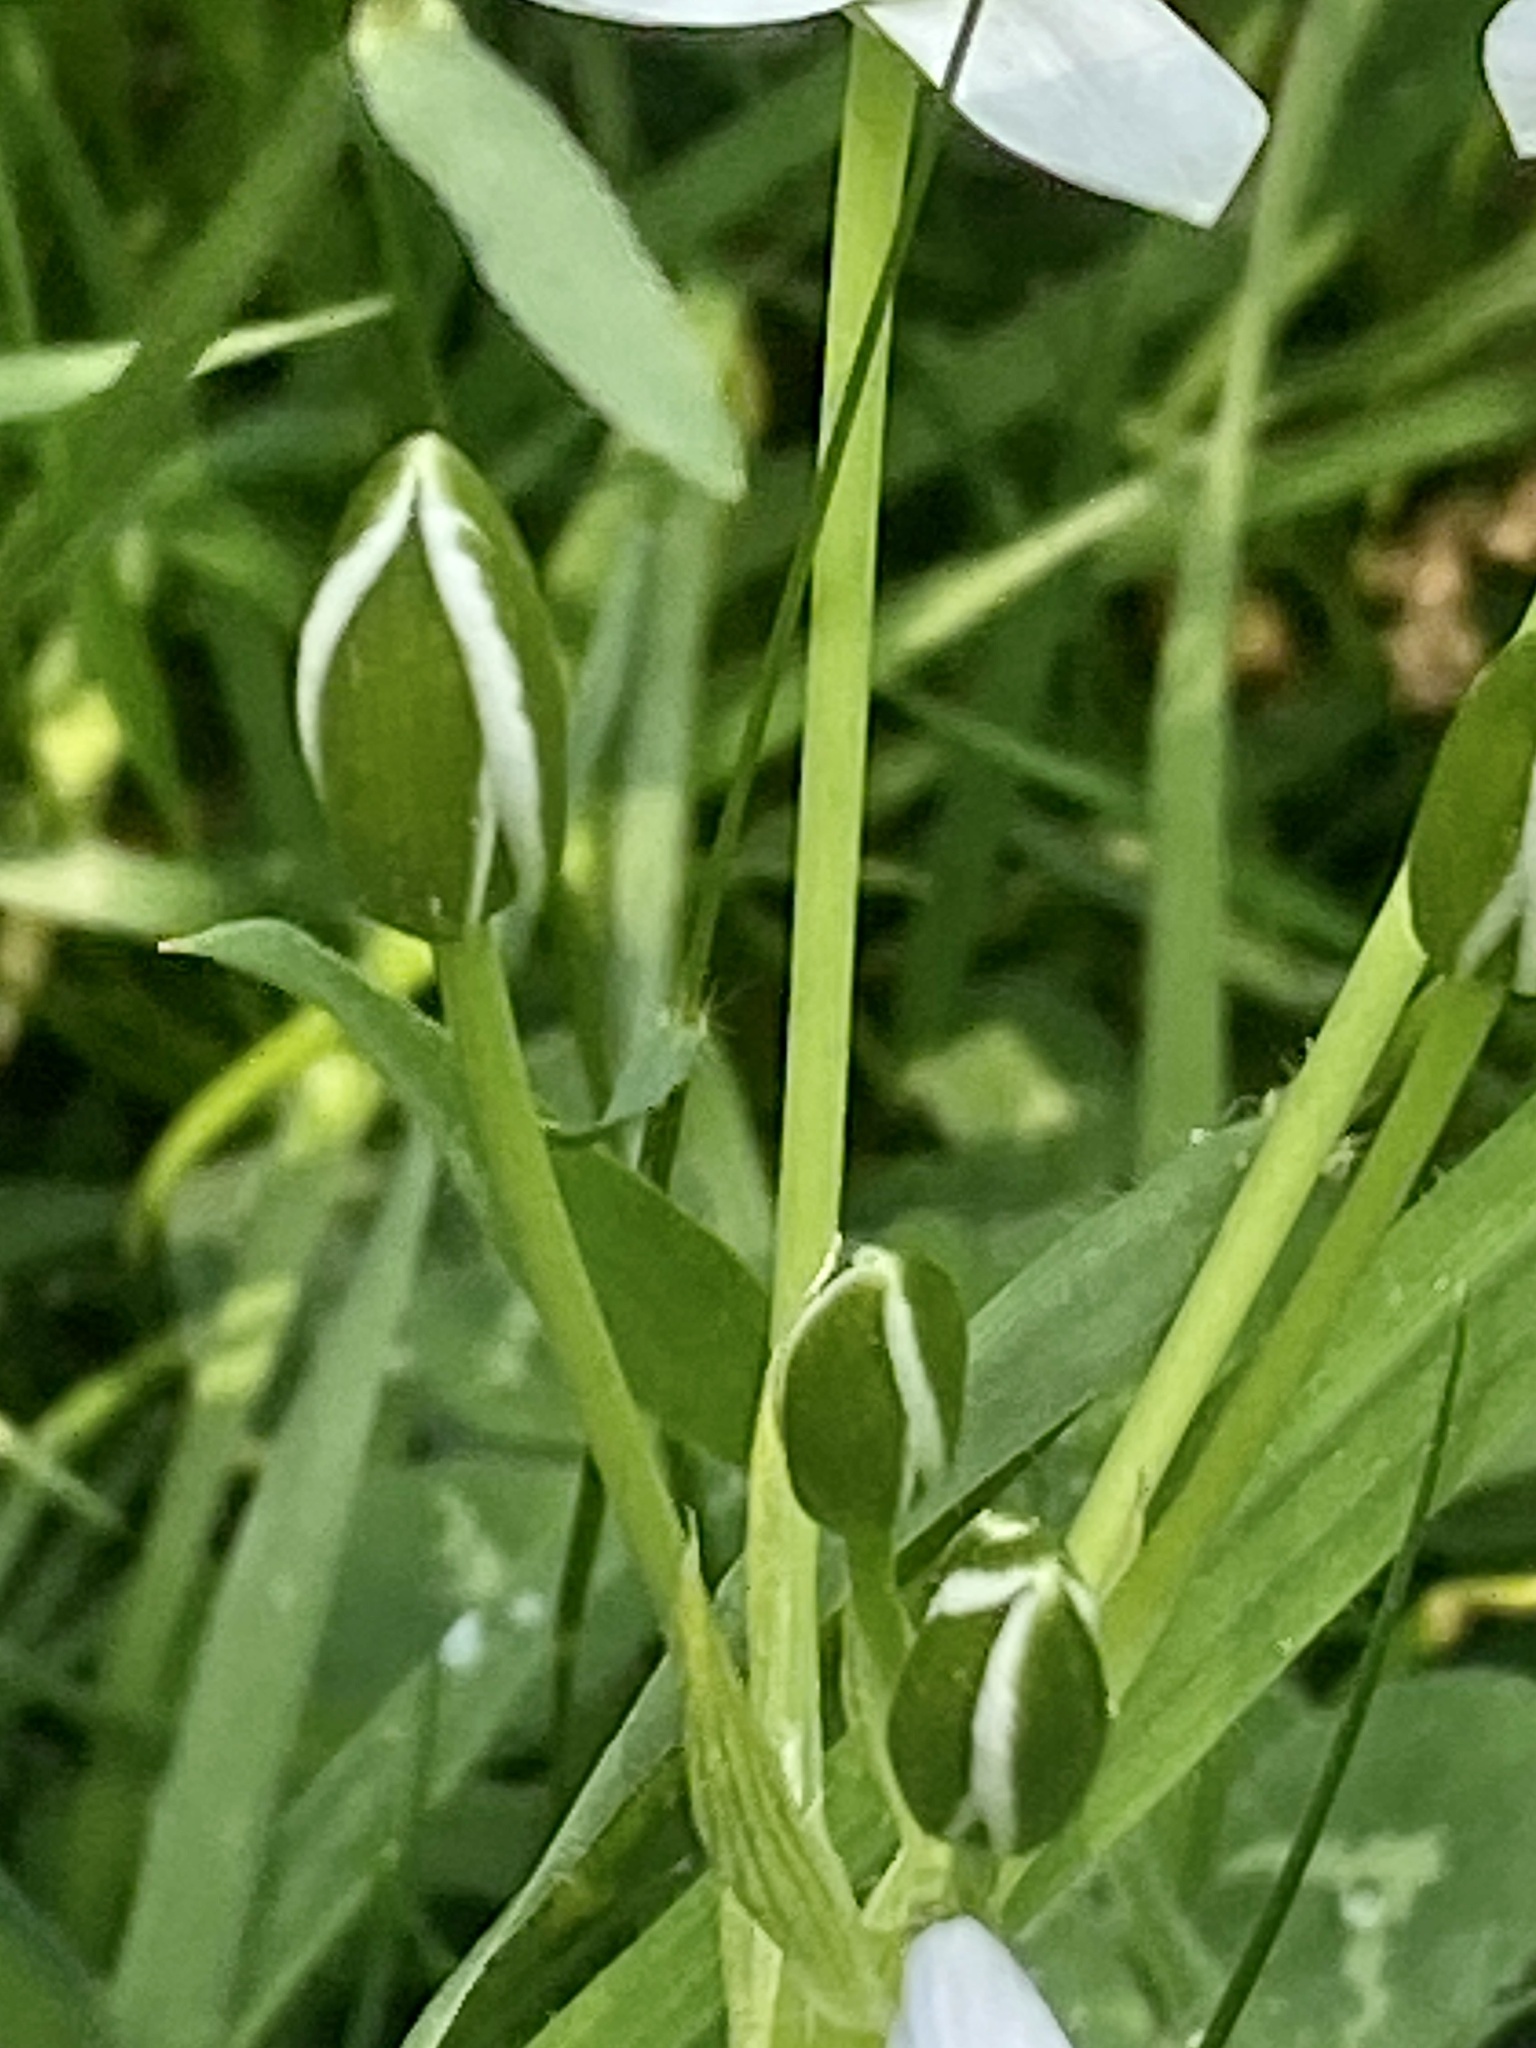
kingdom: Plantae
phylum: Tracheophyta
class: Liliopsida
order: Asparagales
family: Asparagaceae
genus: Ornithogalum
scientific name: Ornithogalum umbellatum
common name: Garden star-of-bethlehem
